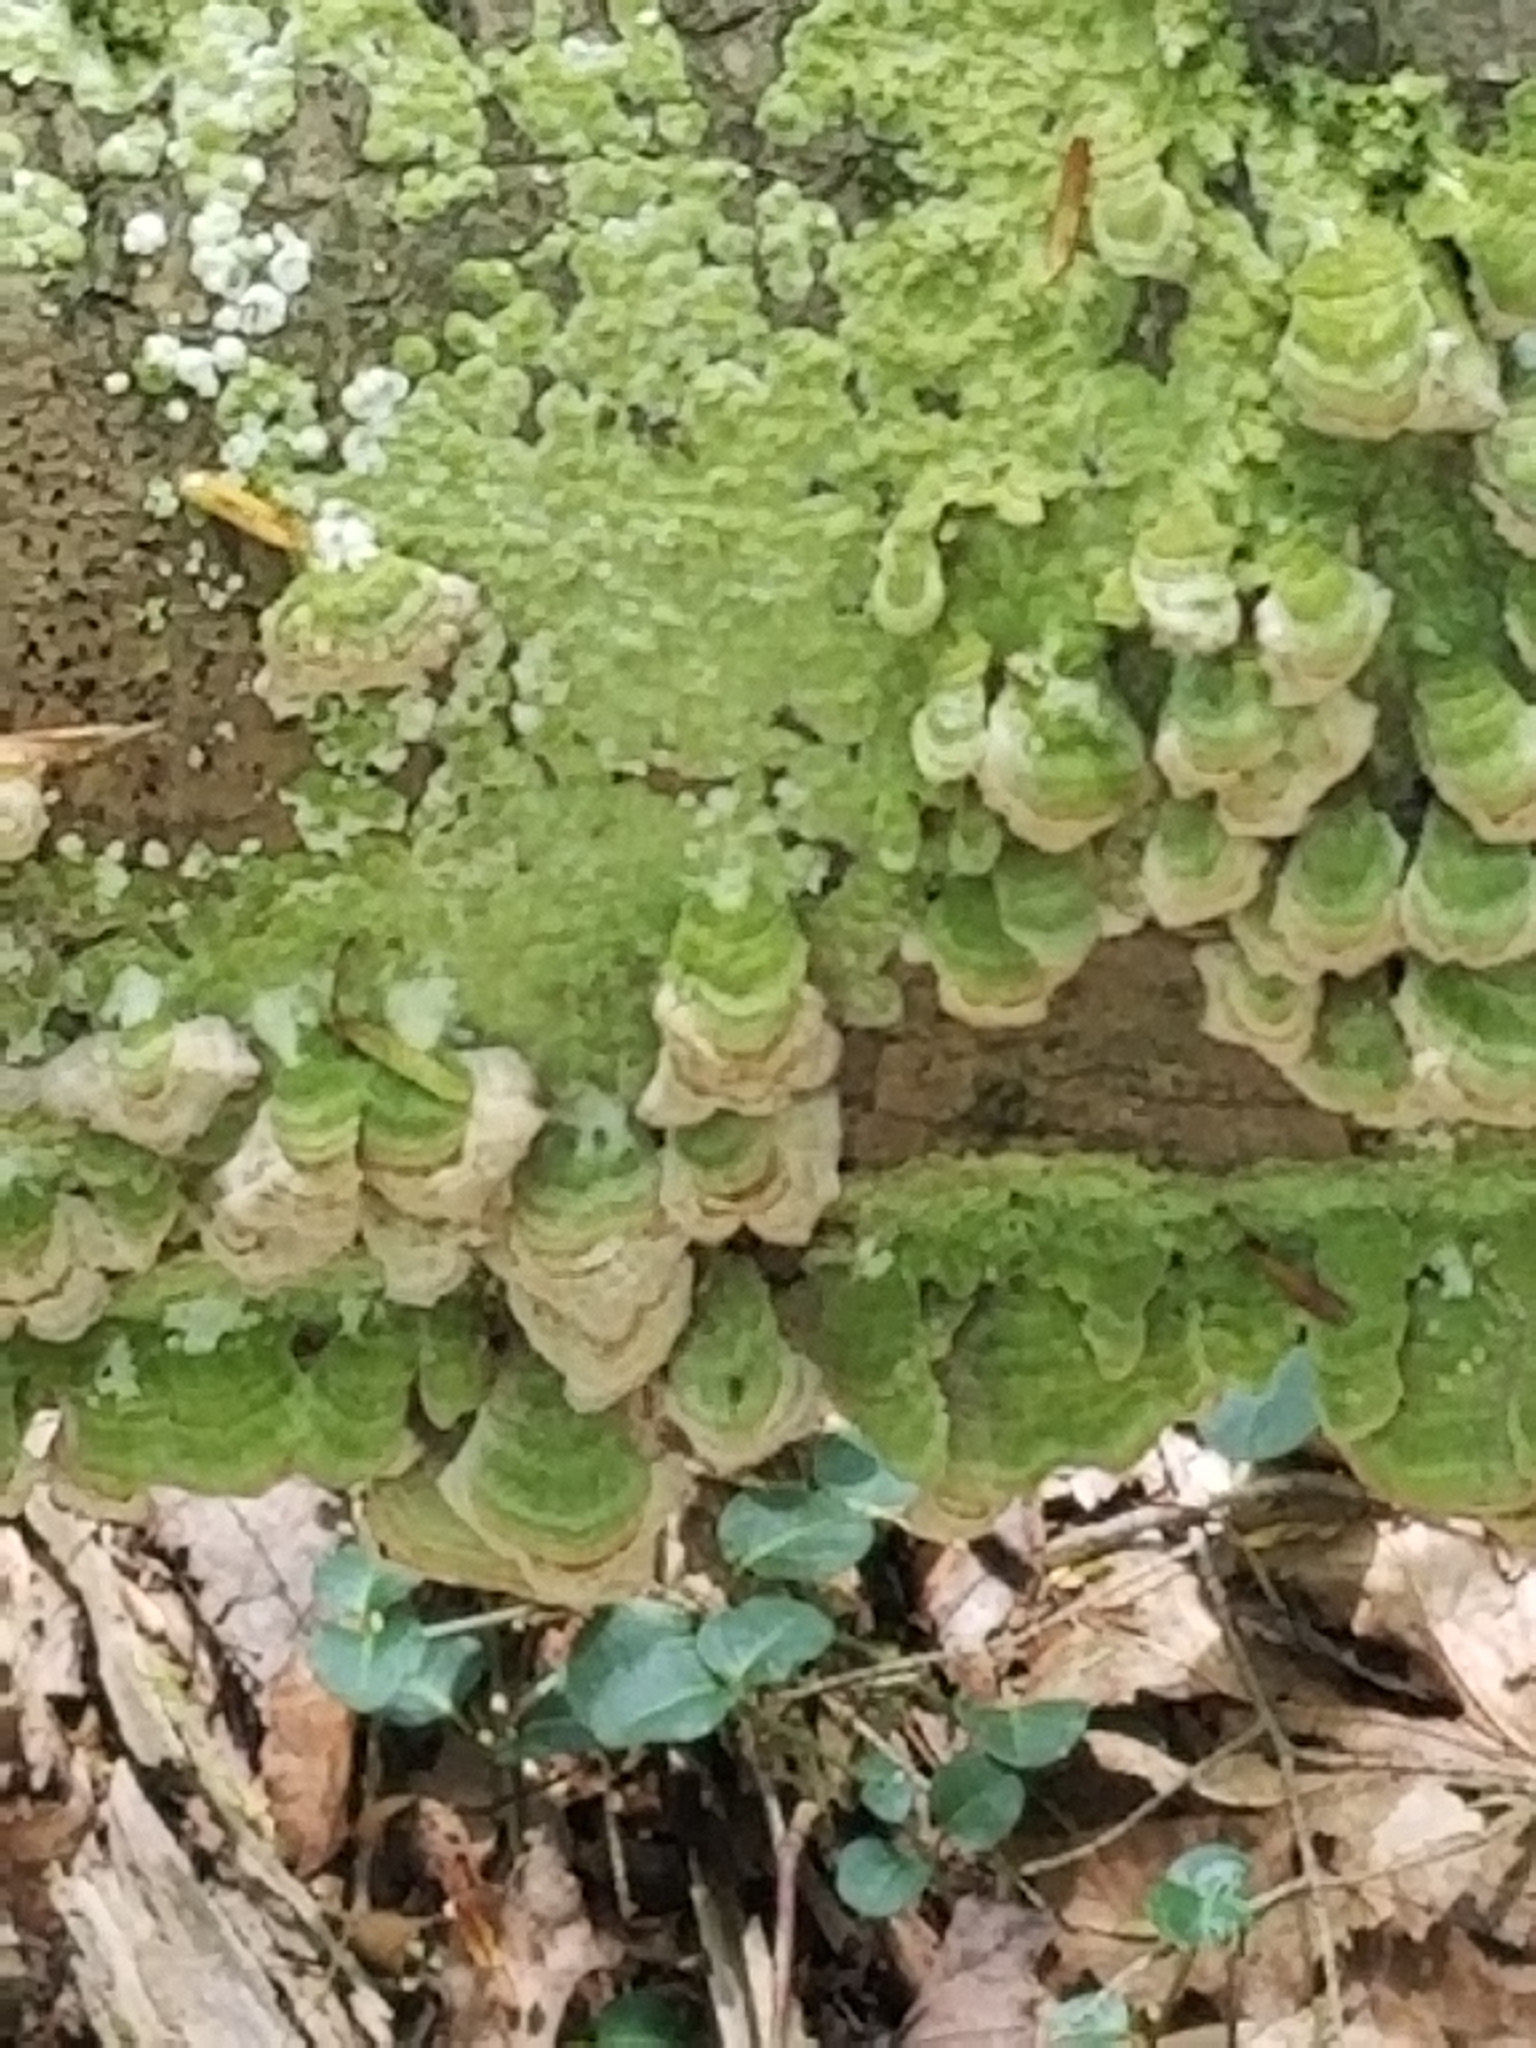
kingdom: Fungi
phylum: Basidiomycota
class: Agaricomycetes
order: Hymenochaetales
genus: Trichaptum
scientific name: Trichaptum biforme
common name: Violet-toothed polypore
